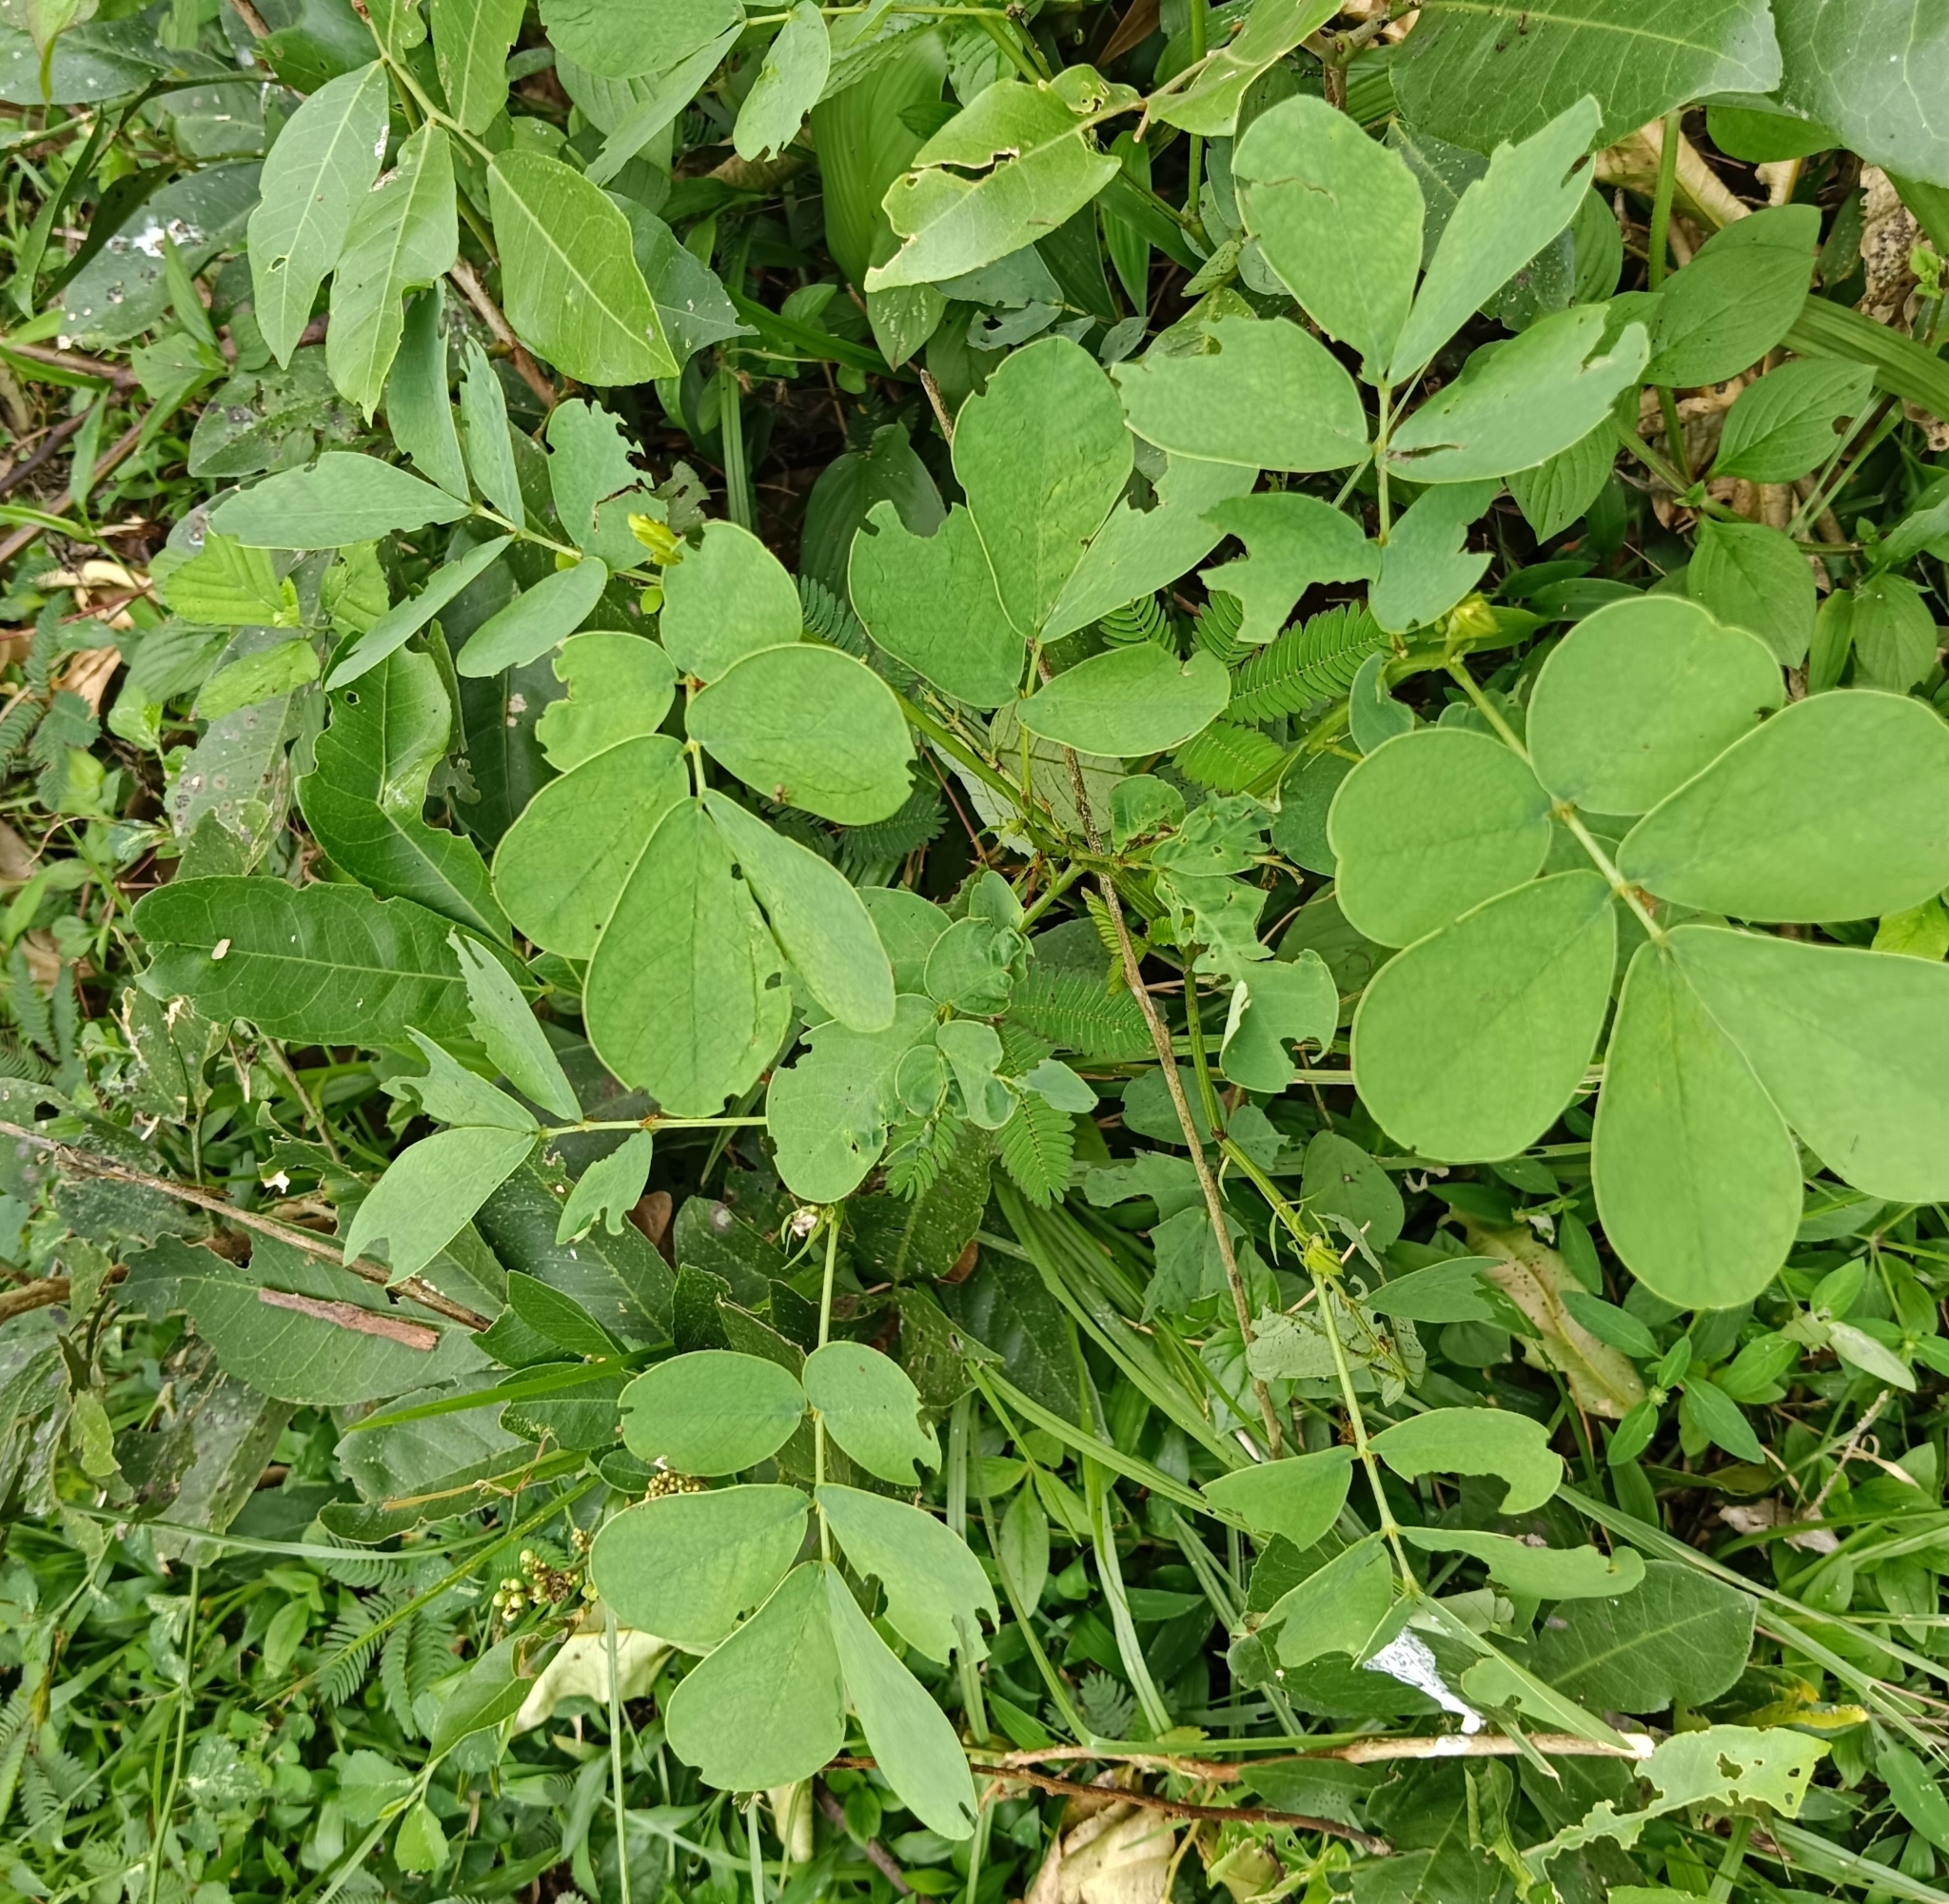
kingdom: Plantae
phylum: Tracheophyta
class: Magnoliopsida
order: Fabales
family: Fabaceae
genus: Senna
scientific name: Senna tora
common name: Sickle senna
